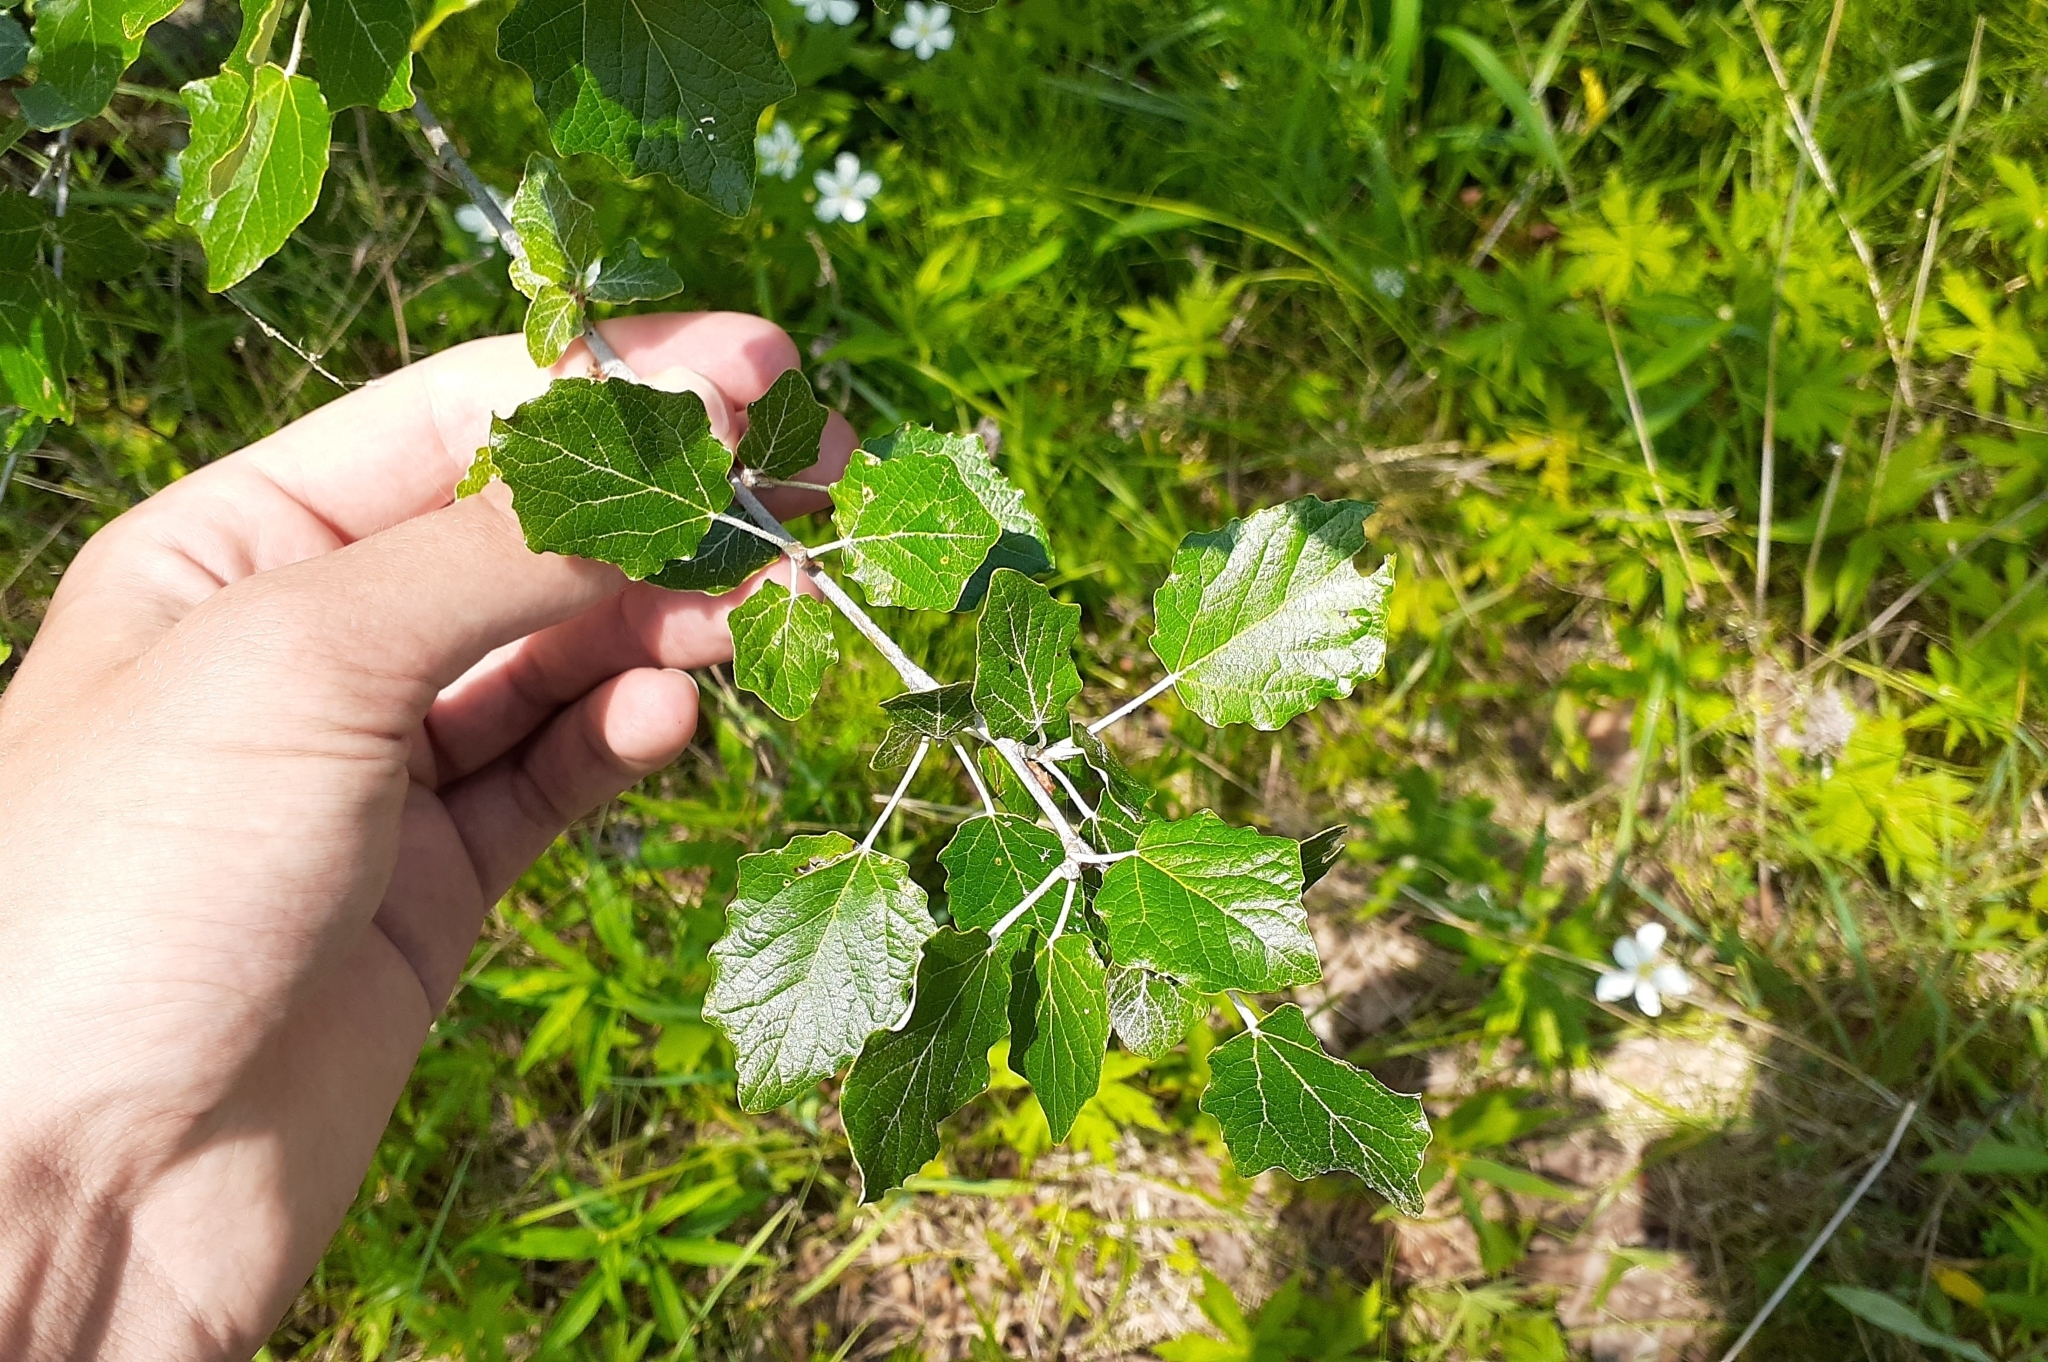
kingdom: Plantae
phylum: Tracheophyta
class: Magnoliopsida
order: Malpighiales
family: Salicaceae
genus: Populus
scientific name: Populus alba
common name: White poplar
